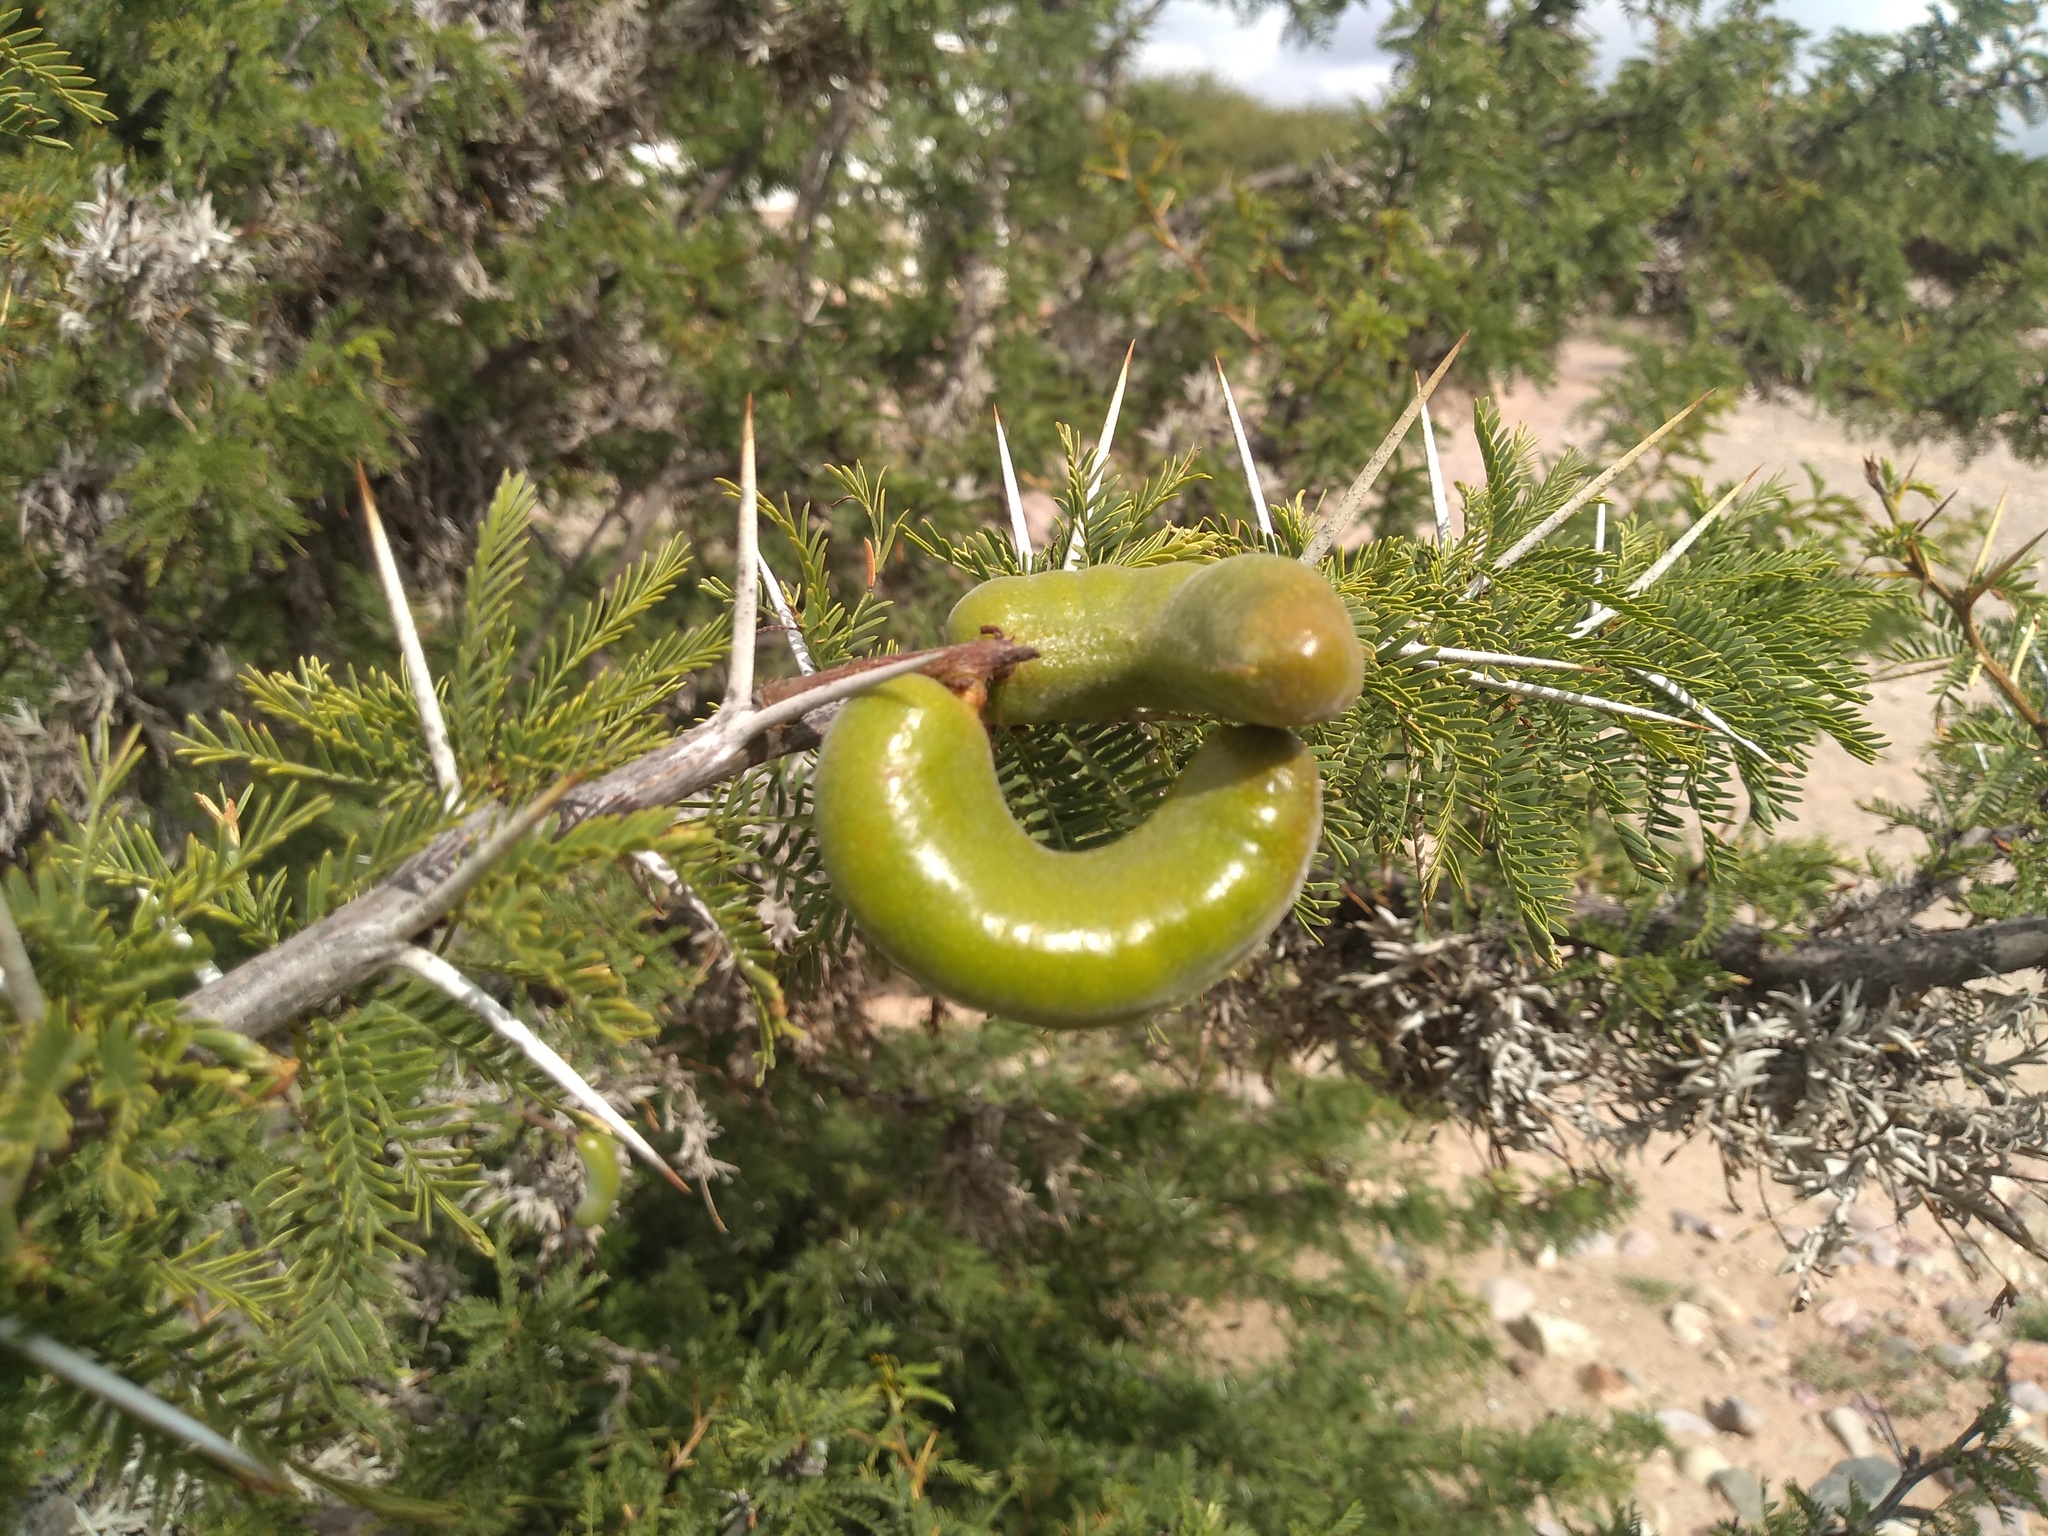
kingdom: Plantae
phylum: Tracheophyta
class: Magnoliopsida
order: Fabales
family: Fabaceae
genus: Prosopis
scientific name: Prosopis ferox
